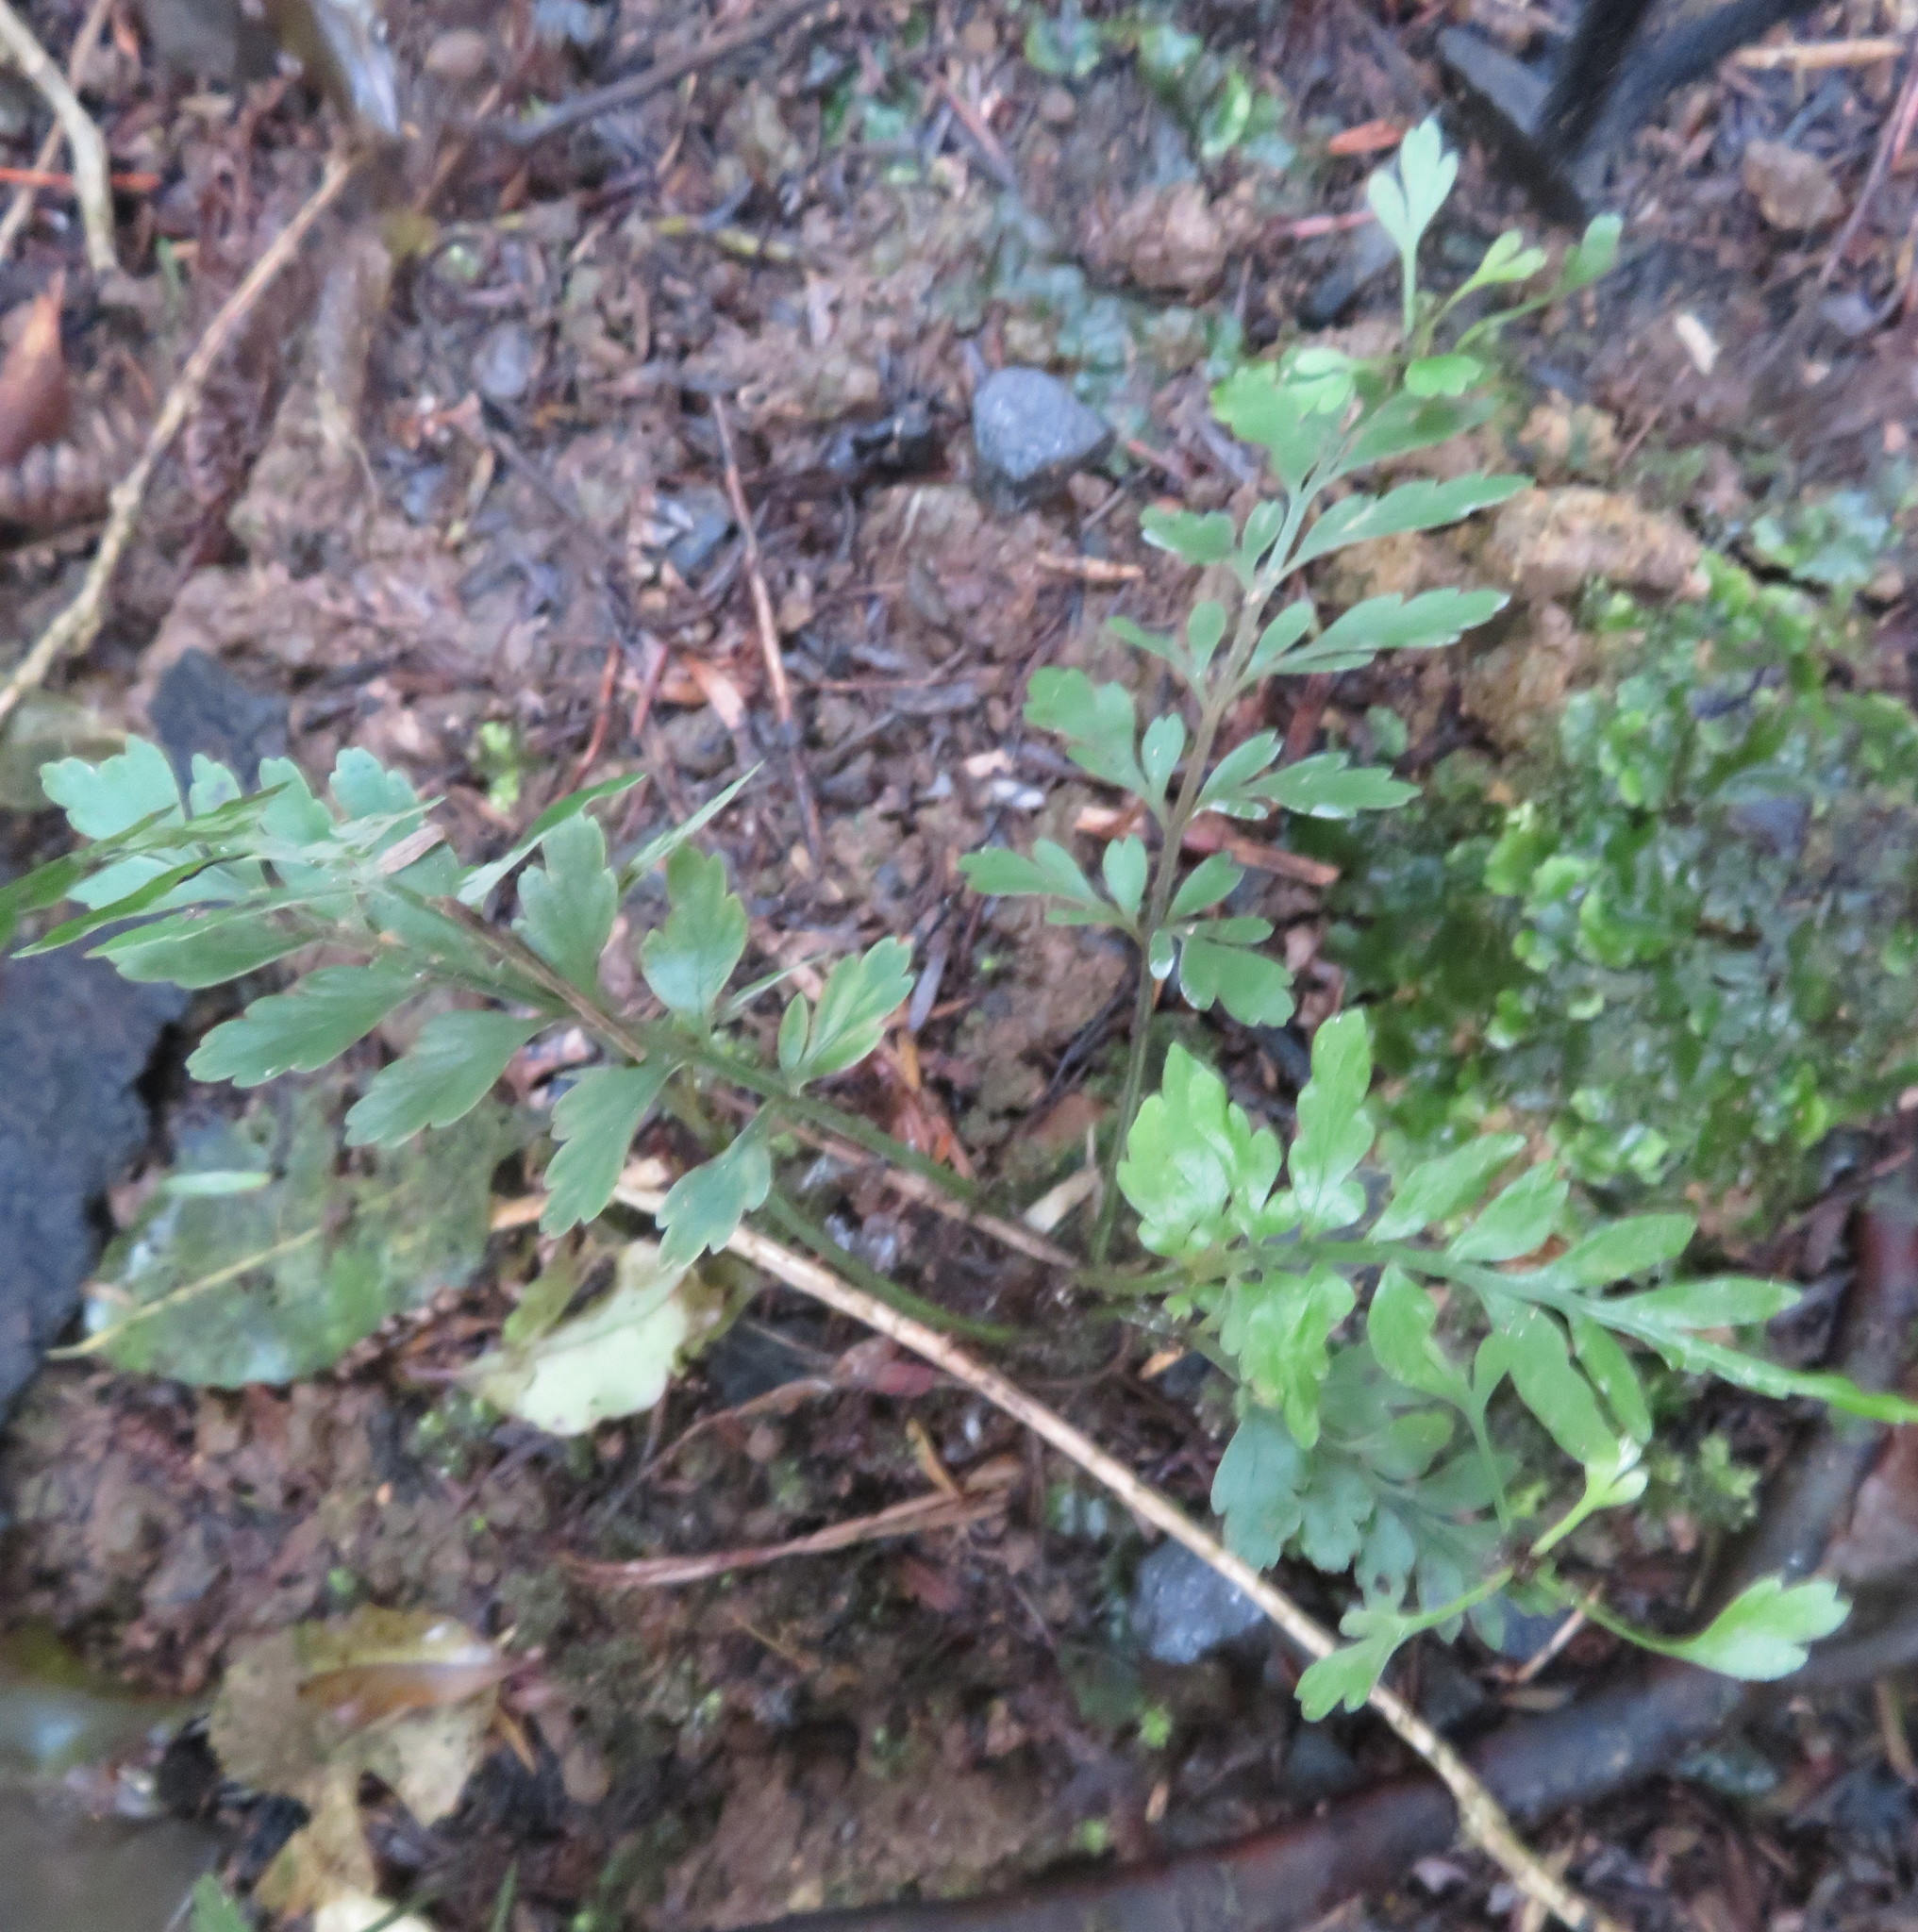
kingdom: Plantae
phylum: Tracheophyta
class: Polypodiopsida
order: Polypodiales
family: Aspleniaceae
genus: Asplenium
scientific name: Asplenium lucrosum
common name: False hen-and-chickens fern
